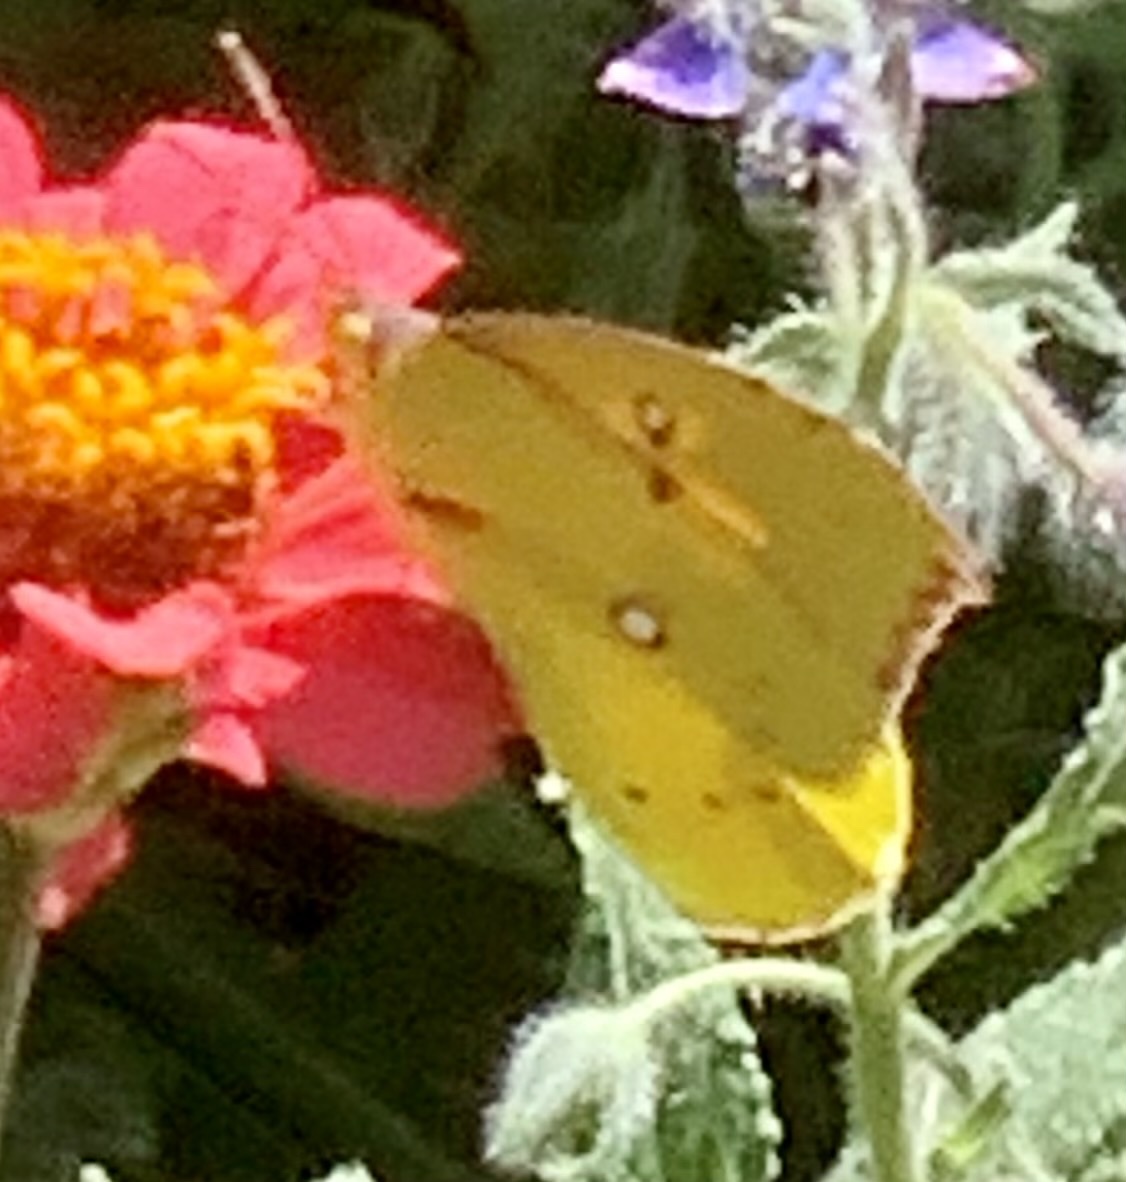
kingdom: Animalia
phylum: Arthropoda
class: Insecta
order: Lepidoptera
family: Pieridae
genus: Zerene
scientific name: Zerene eurydice
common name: California dogface
